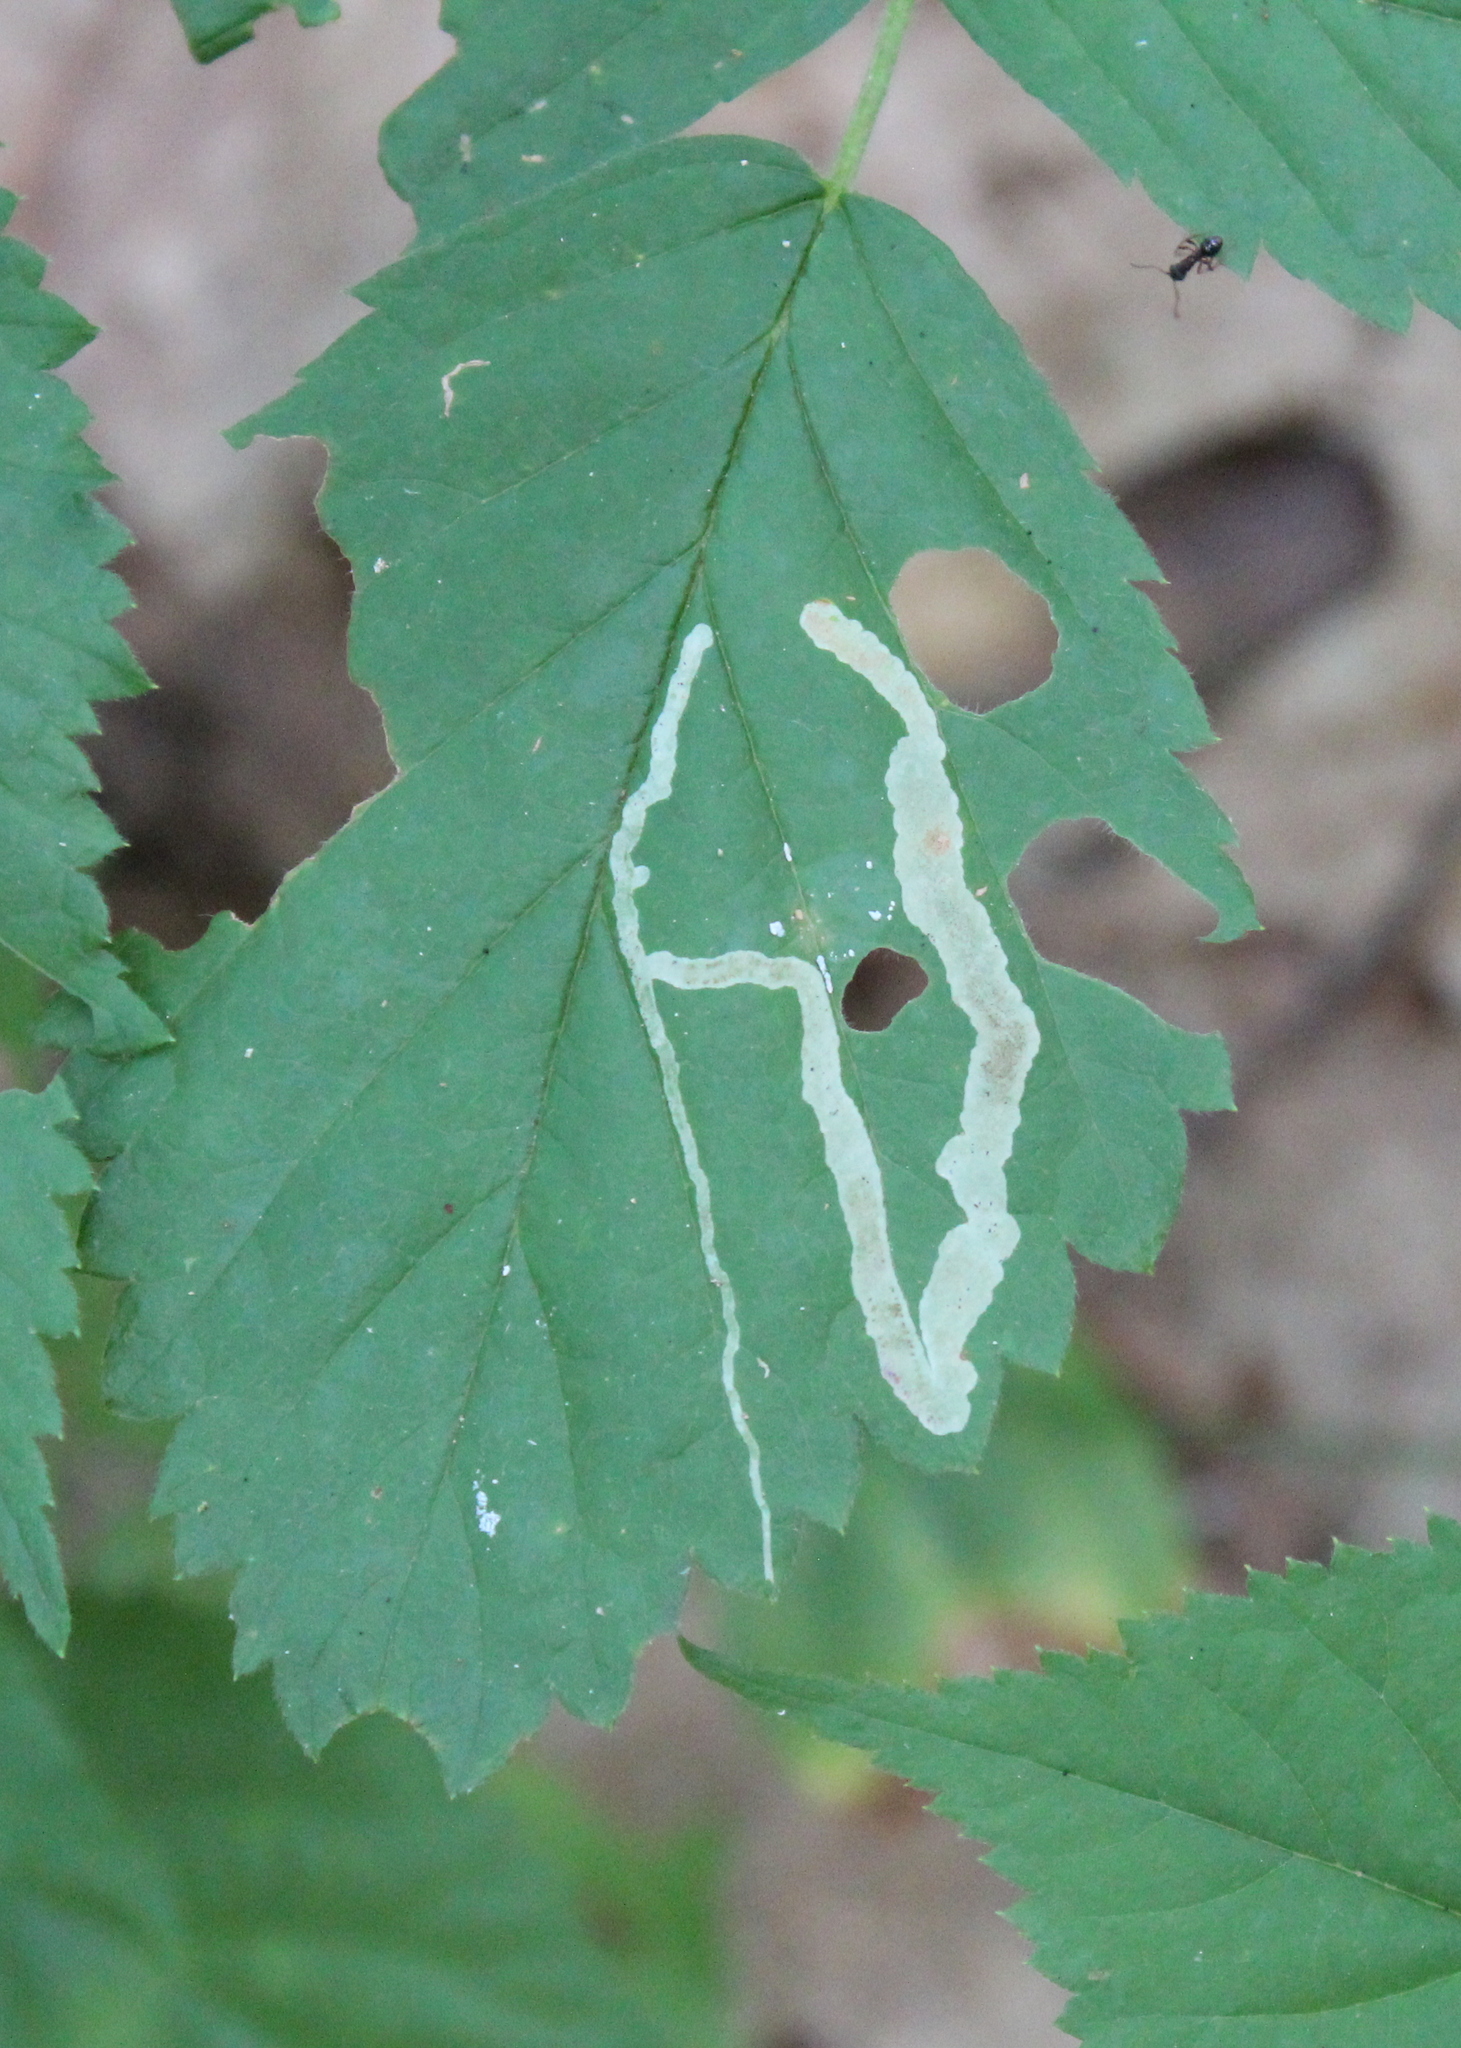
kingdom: Animalia
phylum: Arthropoda
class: Insecta
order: Diptera
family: Agromyzidae
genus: Agromyza
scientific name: Agromyza vockerothi
